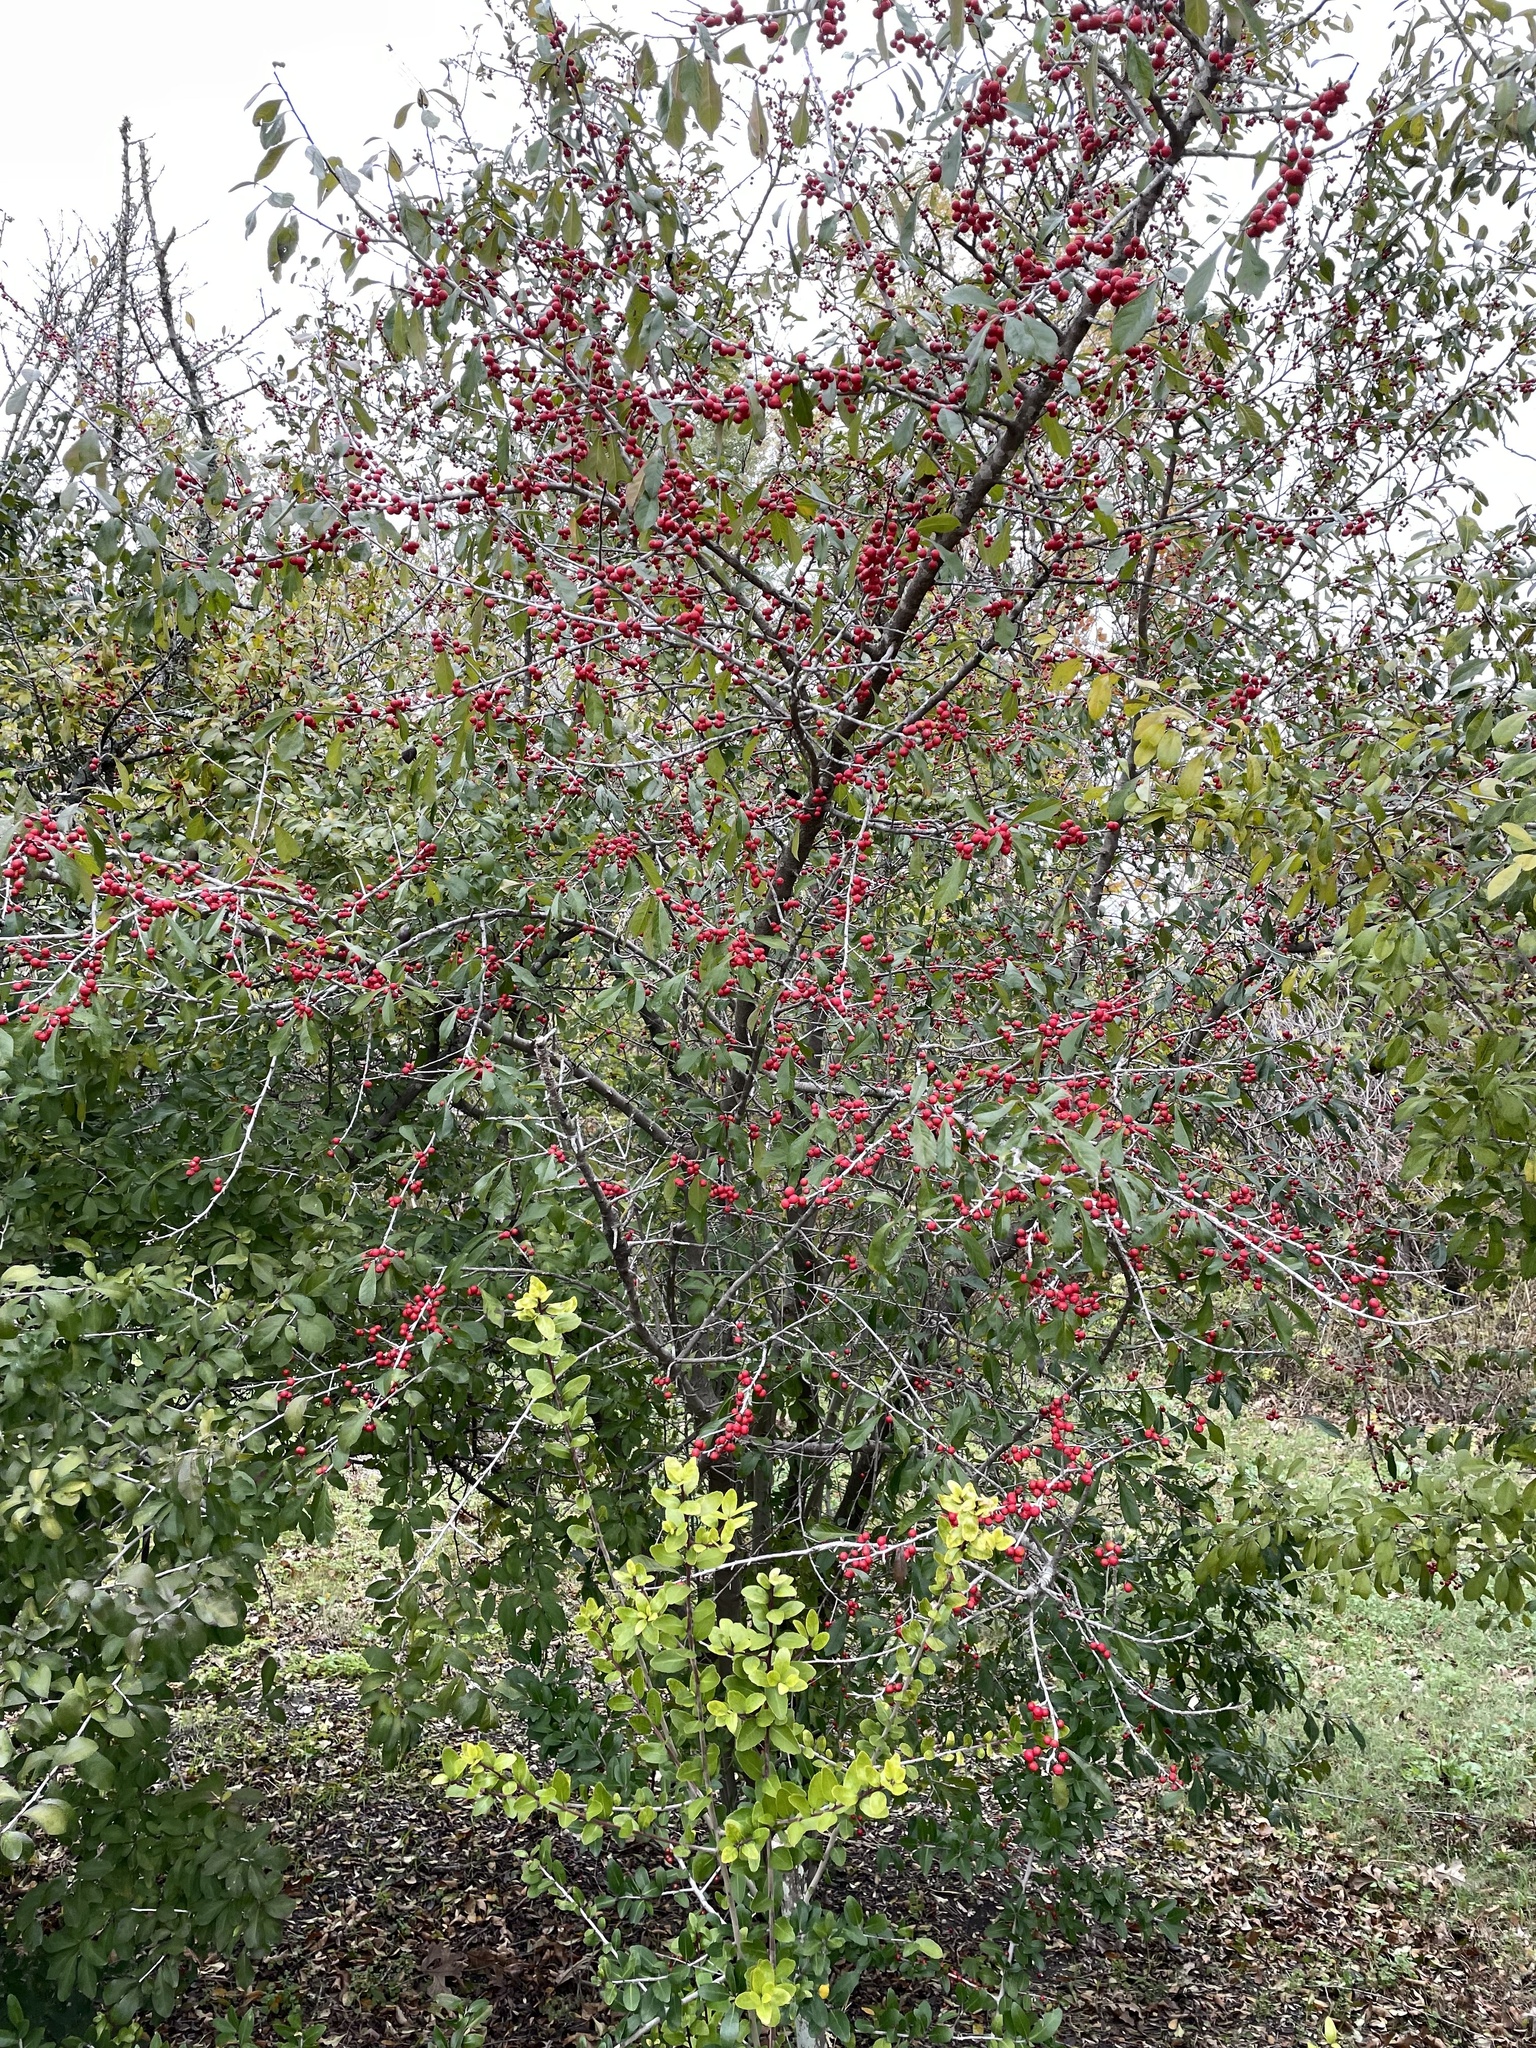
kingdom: Plantae
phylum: Tracheophyta
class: Magnoliopsida
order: Aquifoliales
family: Aquifoliaceae
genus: Ilex
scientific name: Ilex decidua
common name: Possum-haw
